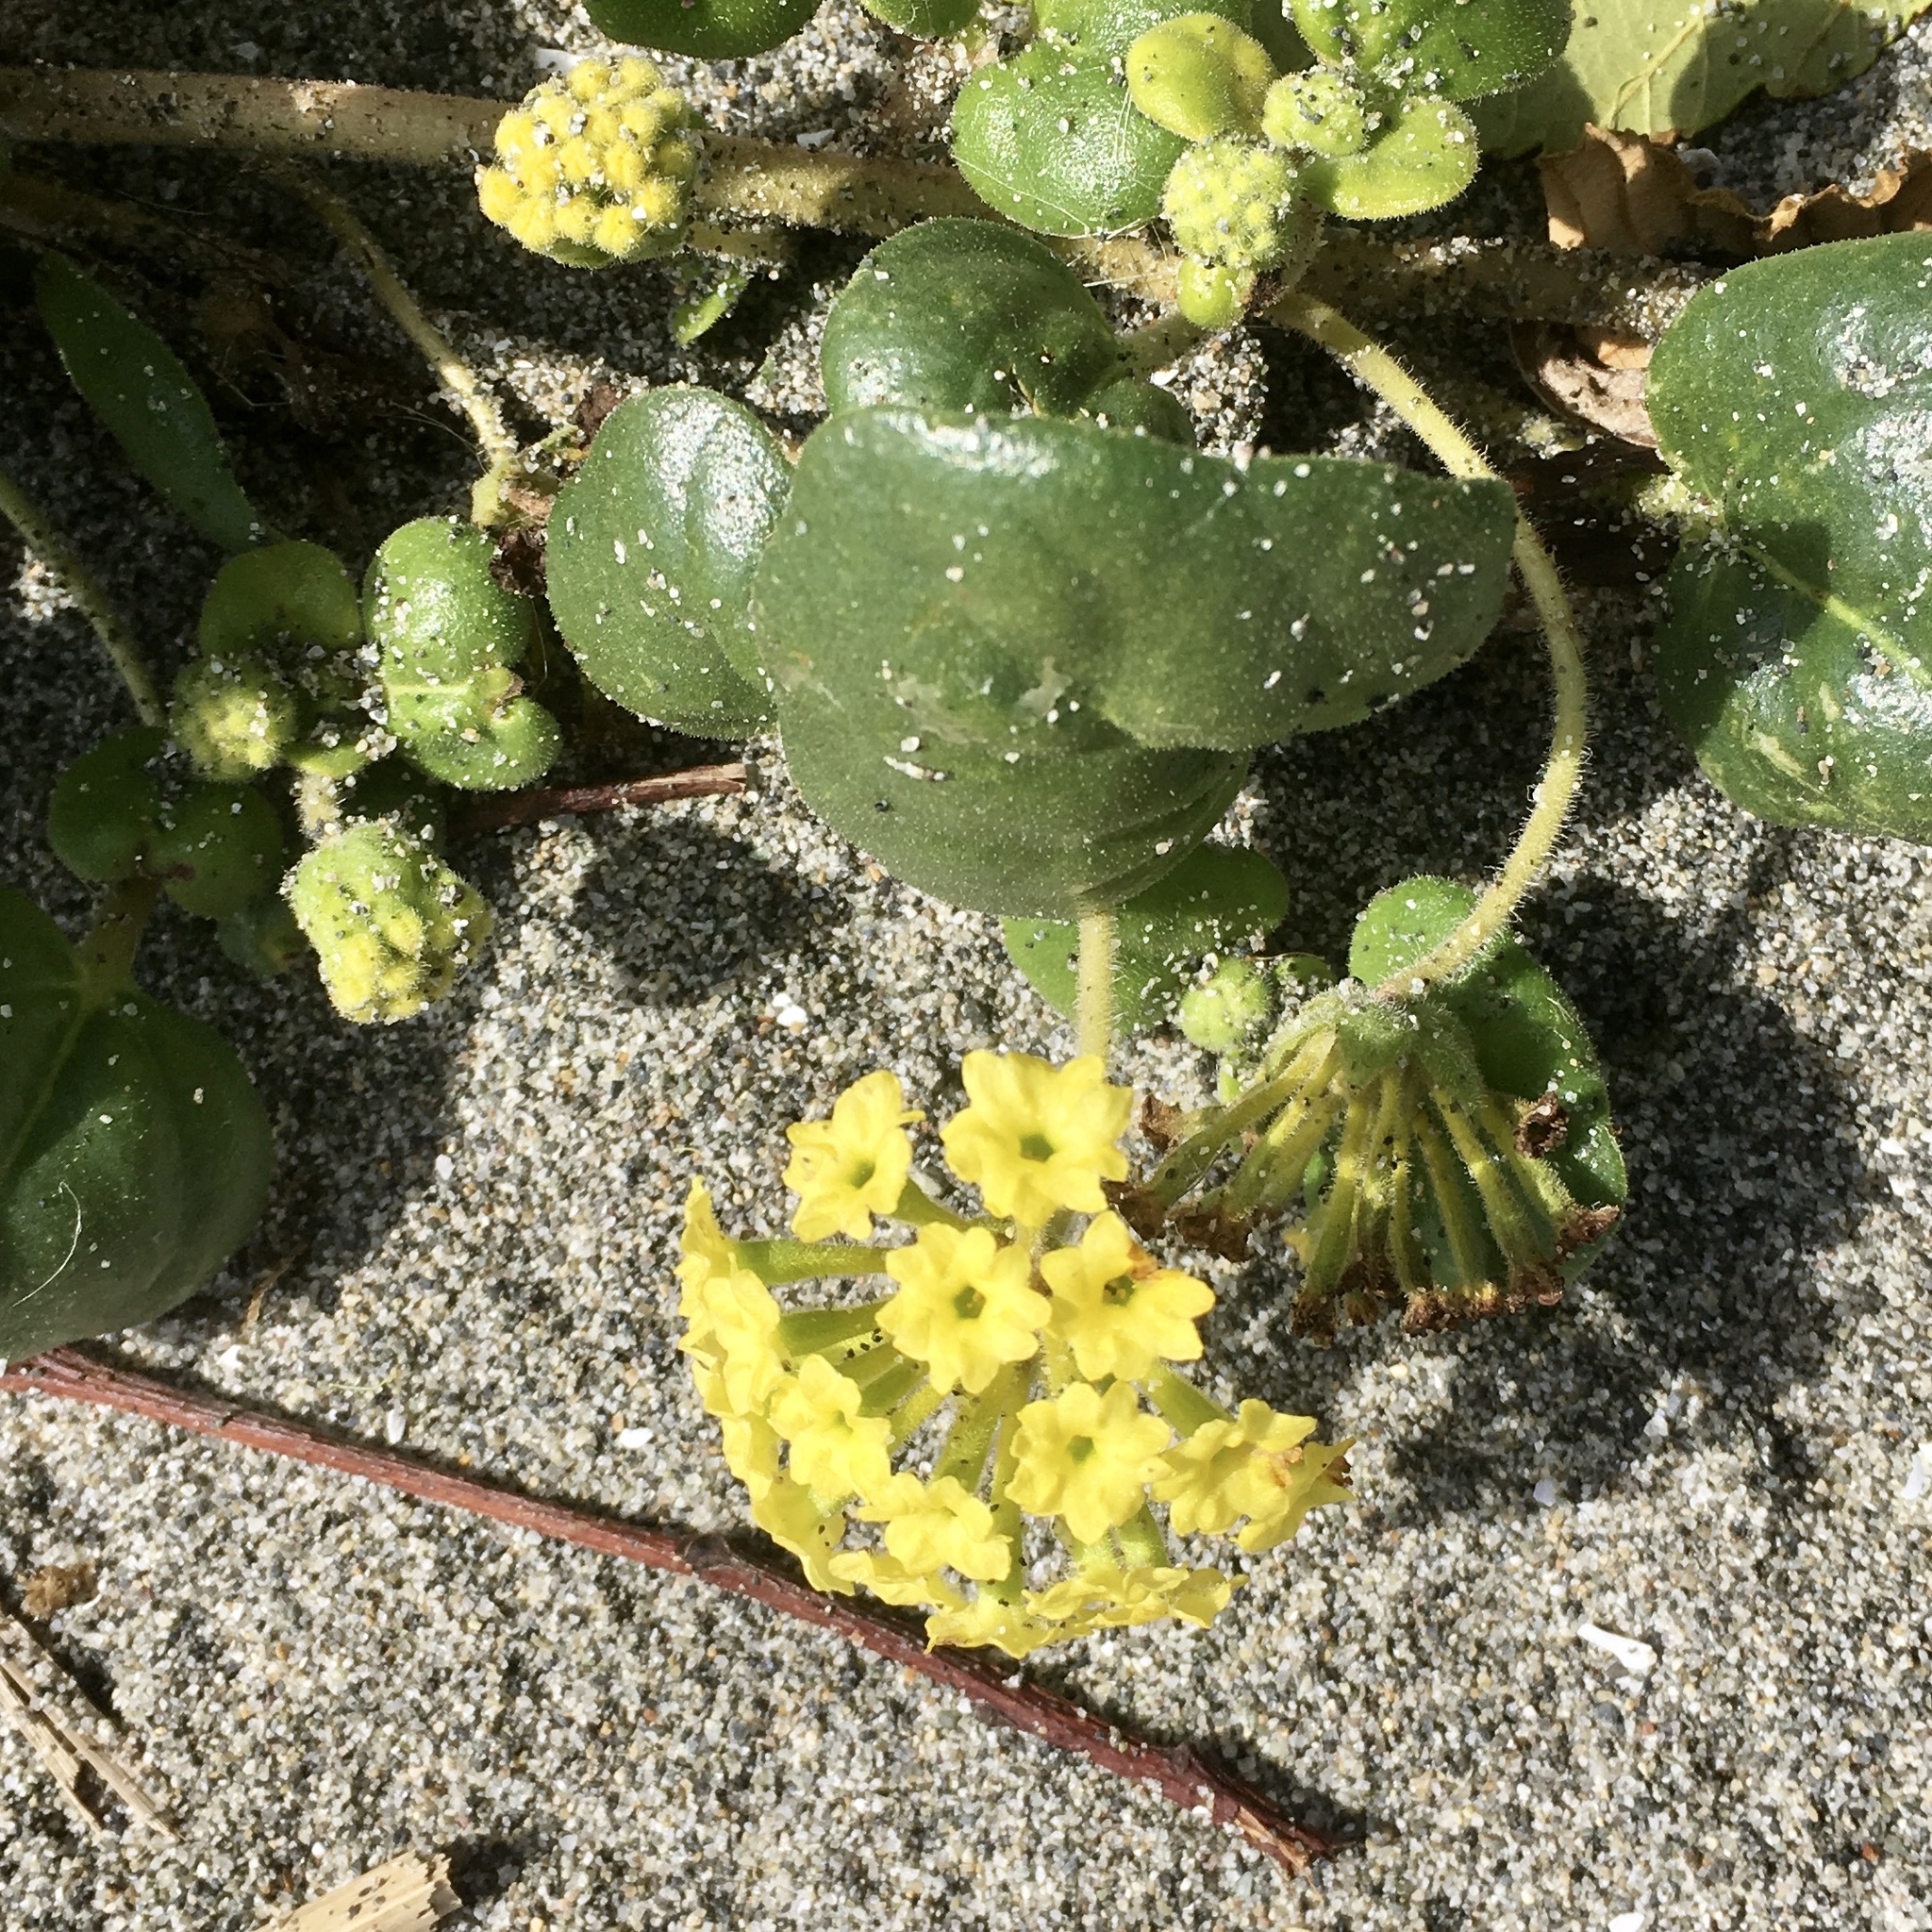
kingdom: Plantae
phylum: Tracheophyta
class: Magnoliopsida
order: Caryophyllales
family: Nyctaginaceae
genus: Abronia
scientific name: Abronia latifolia
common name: Yellow sand-verbena
